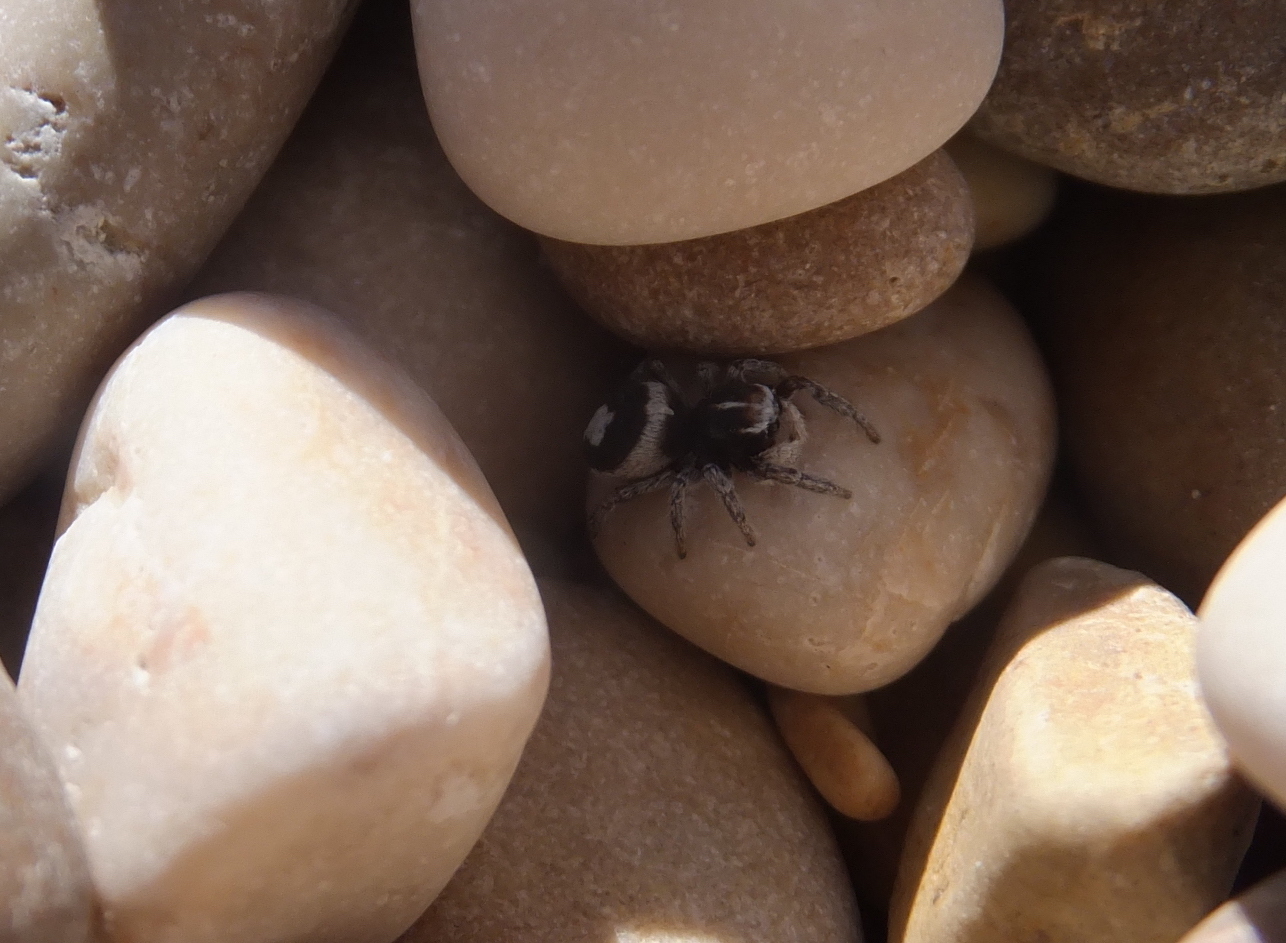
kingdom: Animalia
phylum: Arthropoda
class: Arachnida
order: Araneae
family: Salticidae
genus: Attulus
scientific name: Attulus damini
